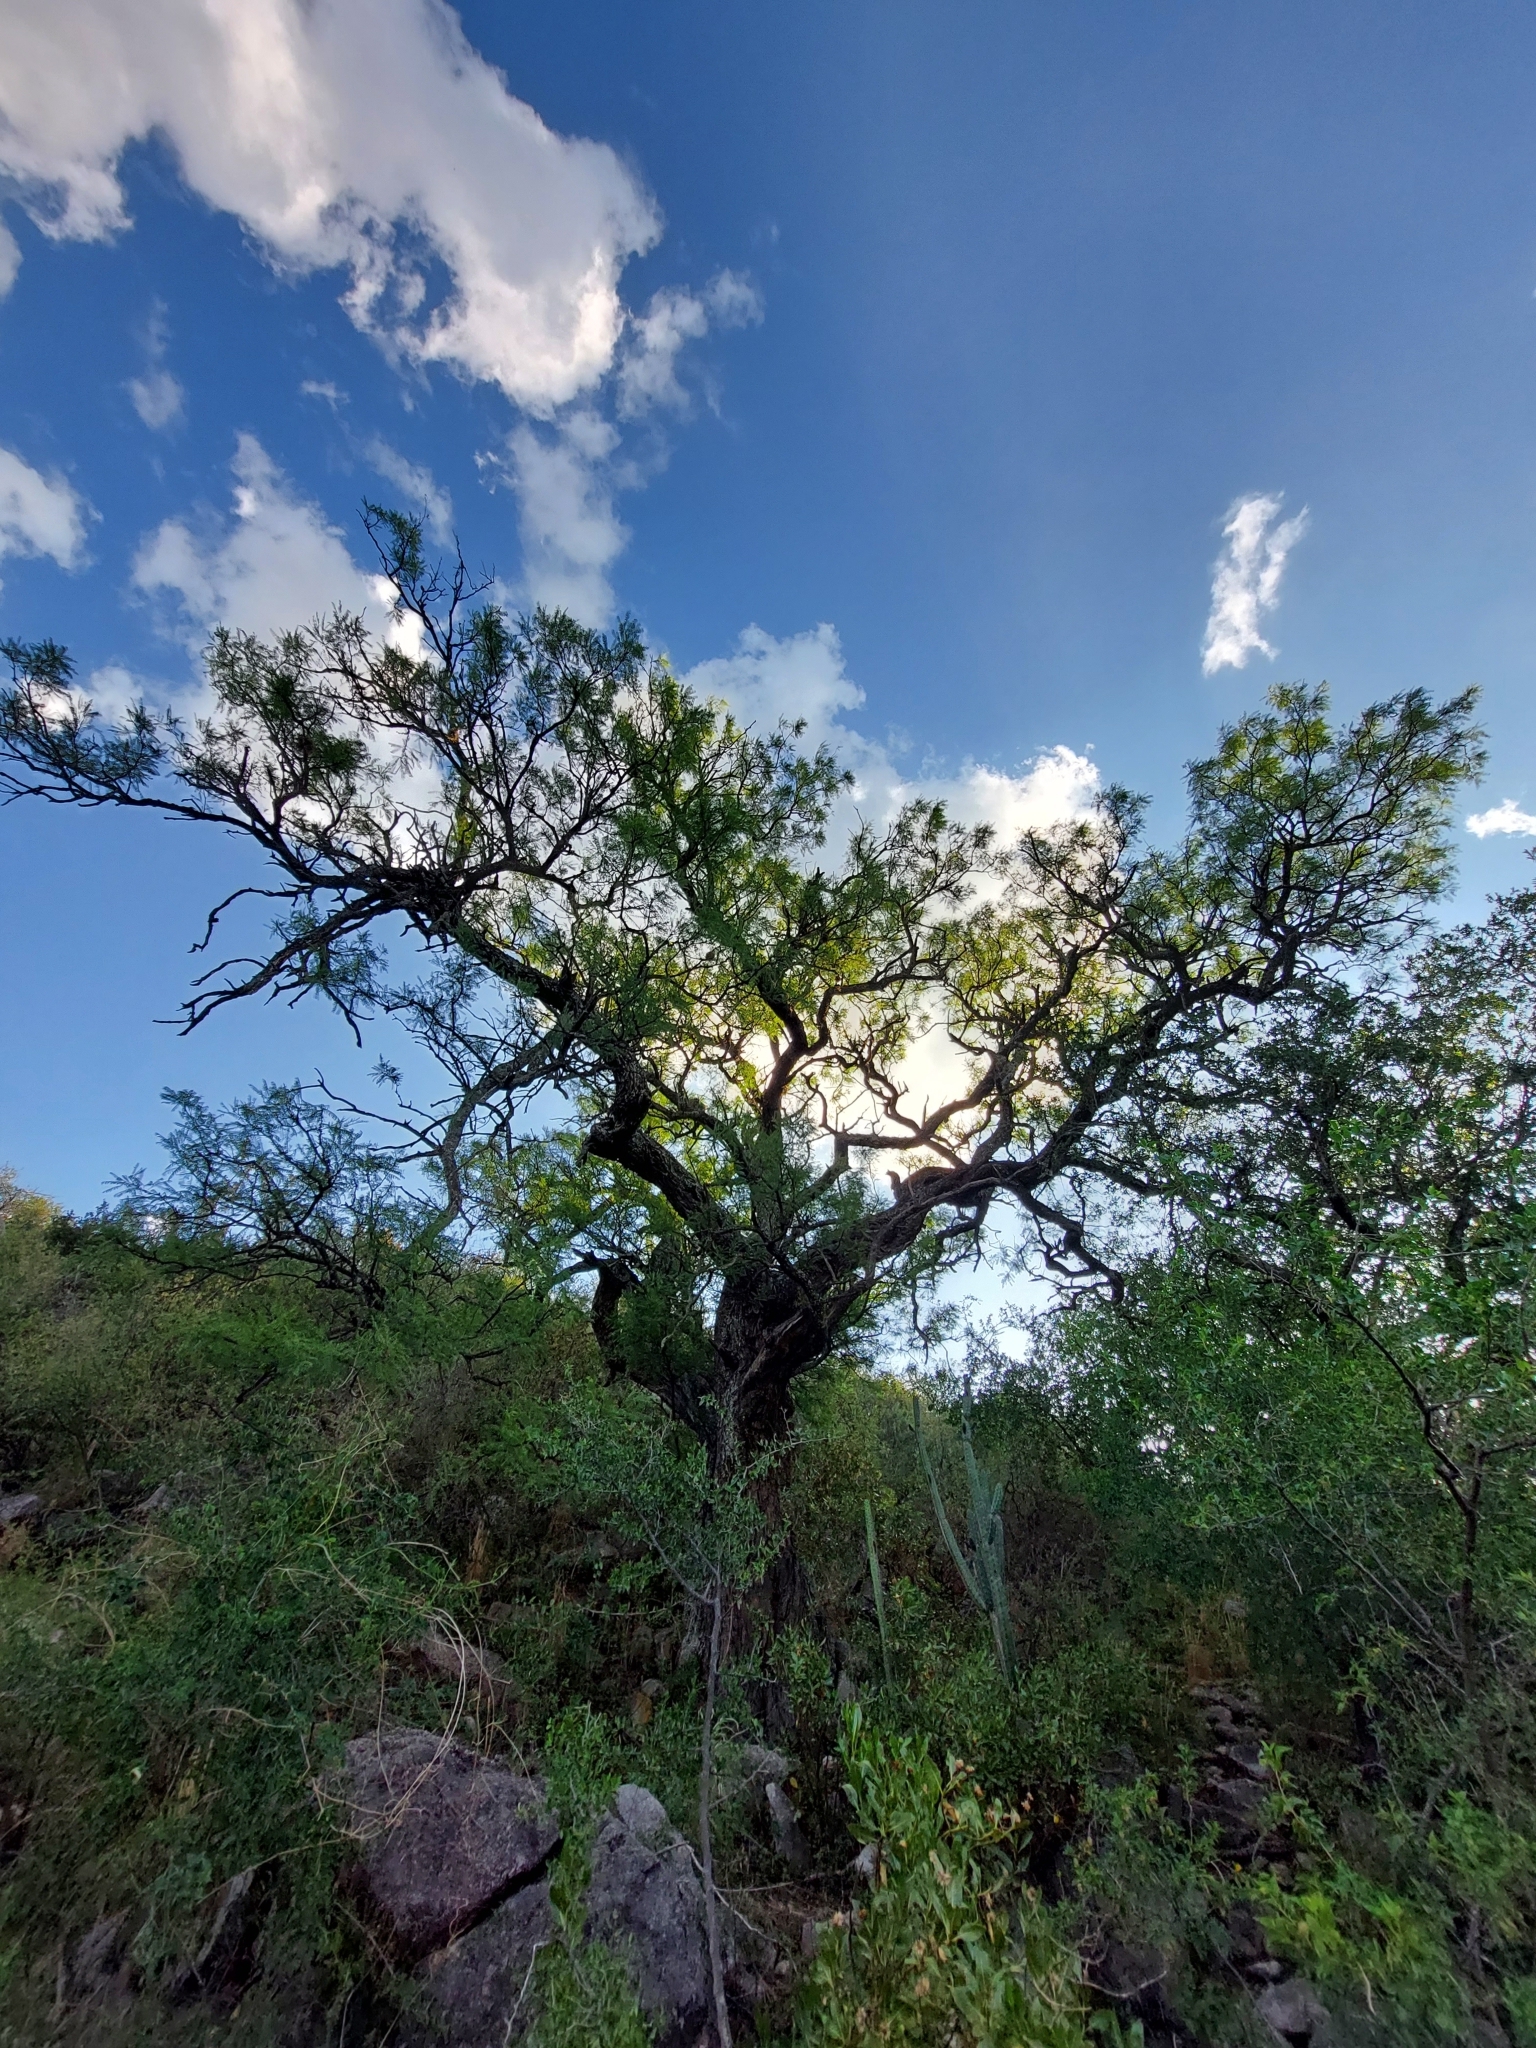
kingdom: Plantae
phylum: Tracheophyta
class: Magnoliopsida
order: Fabales
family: Fabaceae
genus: Prosopis
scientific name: Prosopis chilensis
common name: Chilean algarrobo
